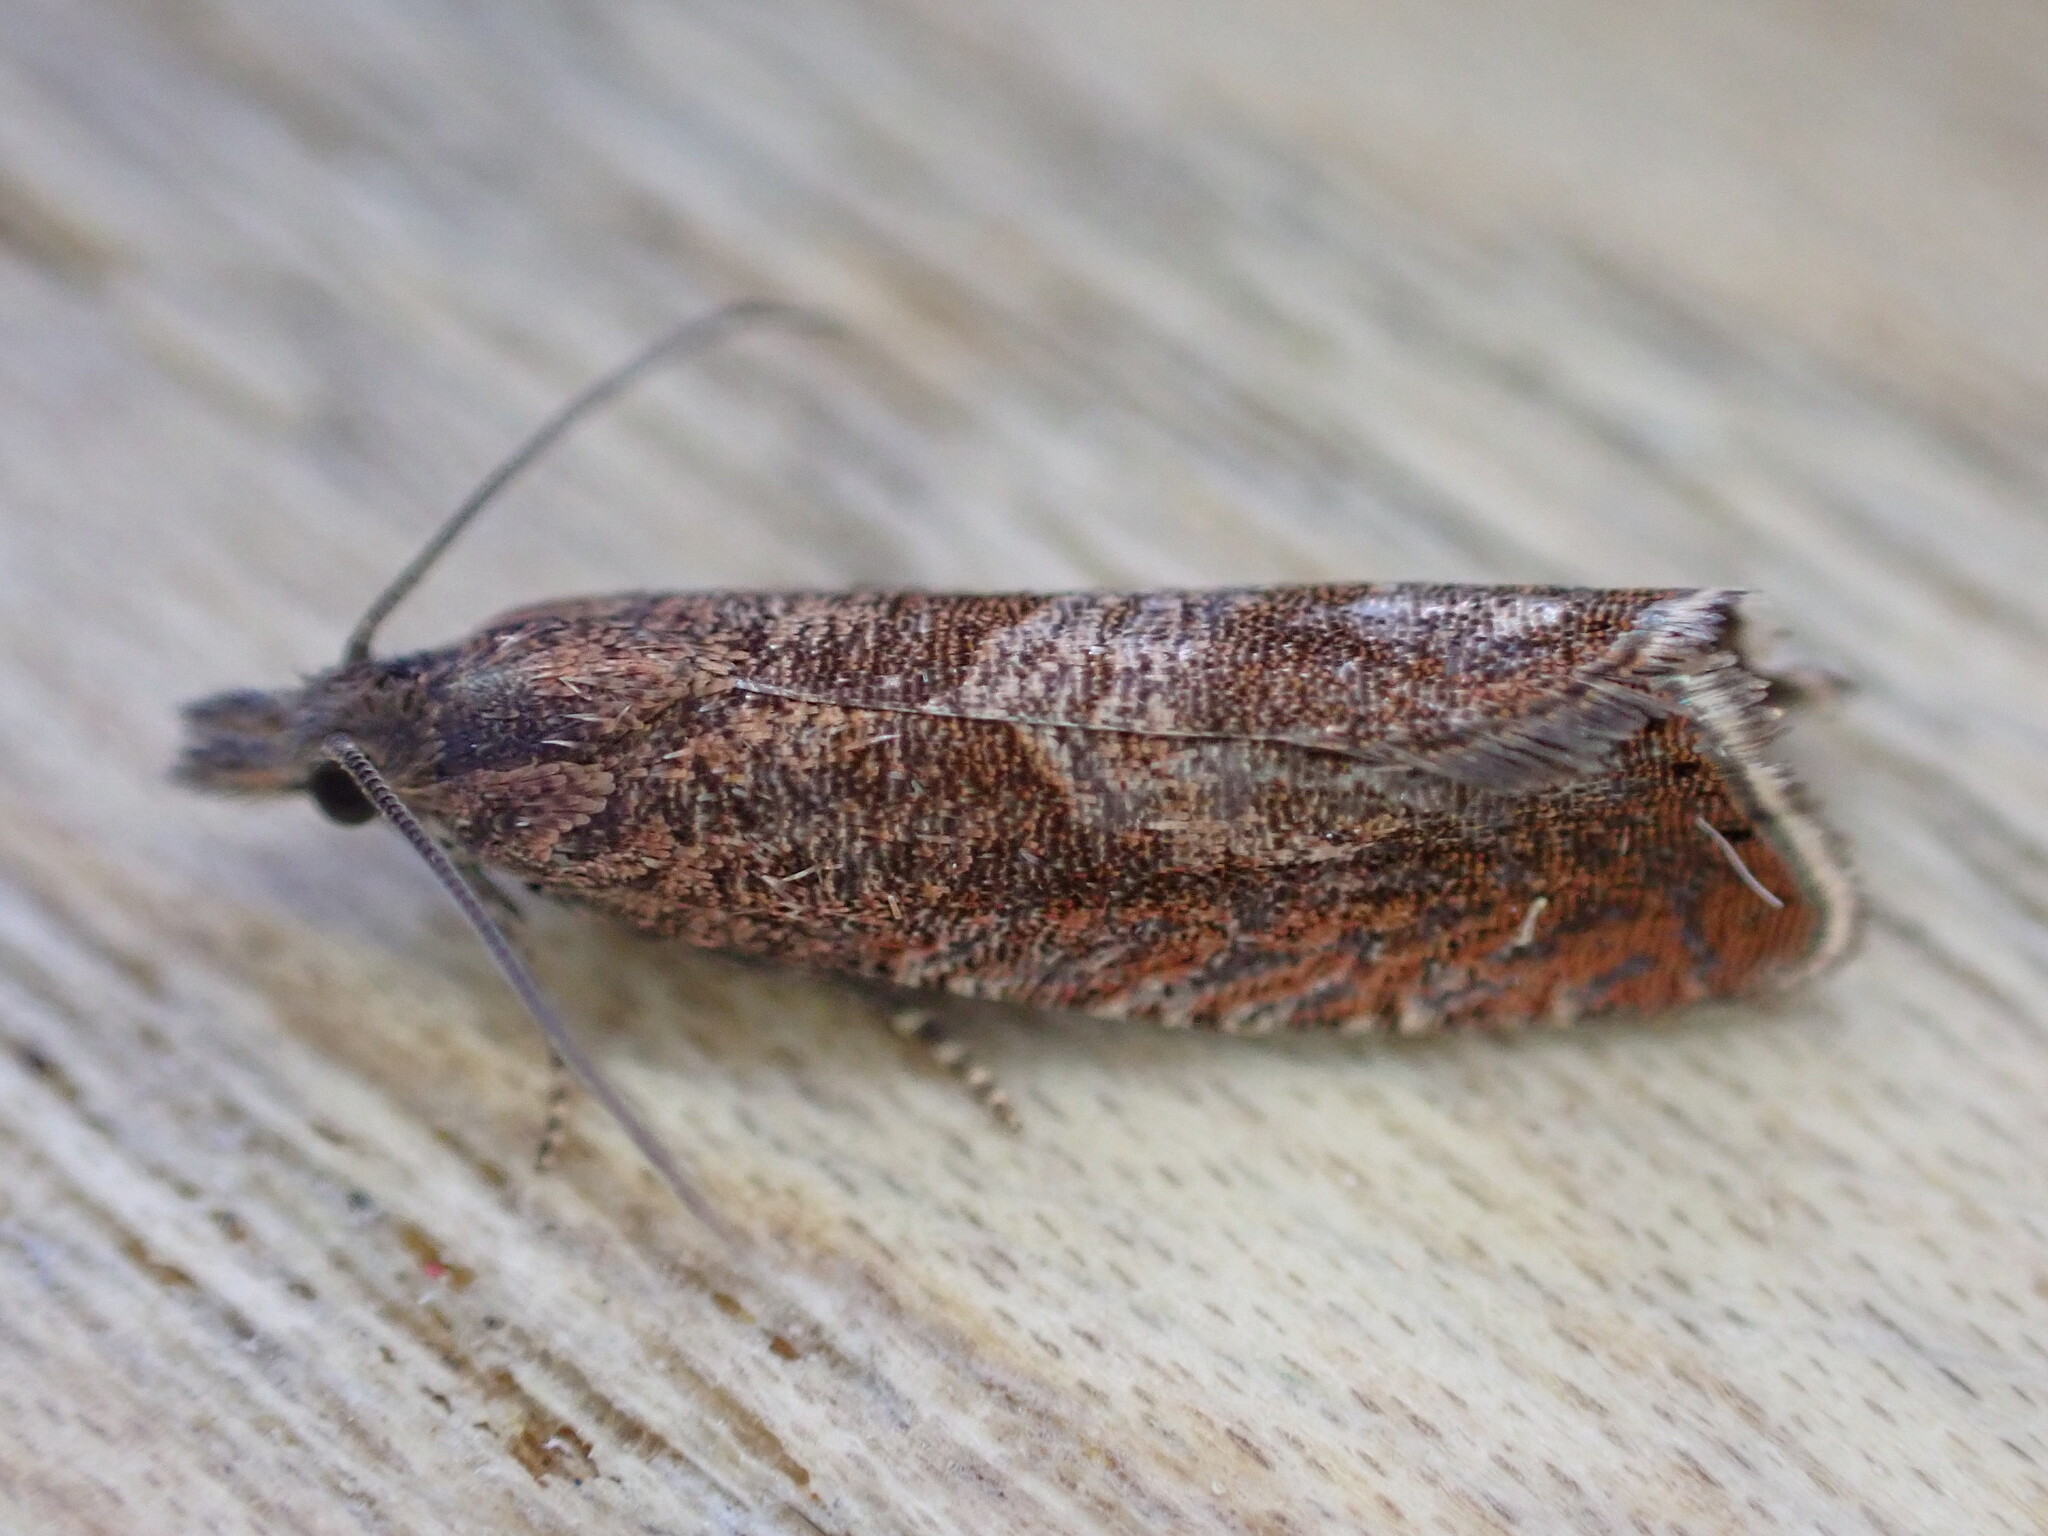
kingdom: Animalia
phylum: Arthropoda
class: Insecta
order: Lepidoptera
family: Tortricidae
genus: Dichrorampha
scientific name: Dichrorampha acuminatana
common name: Sharp-winged drill
